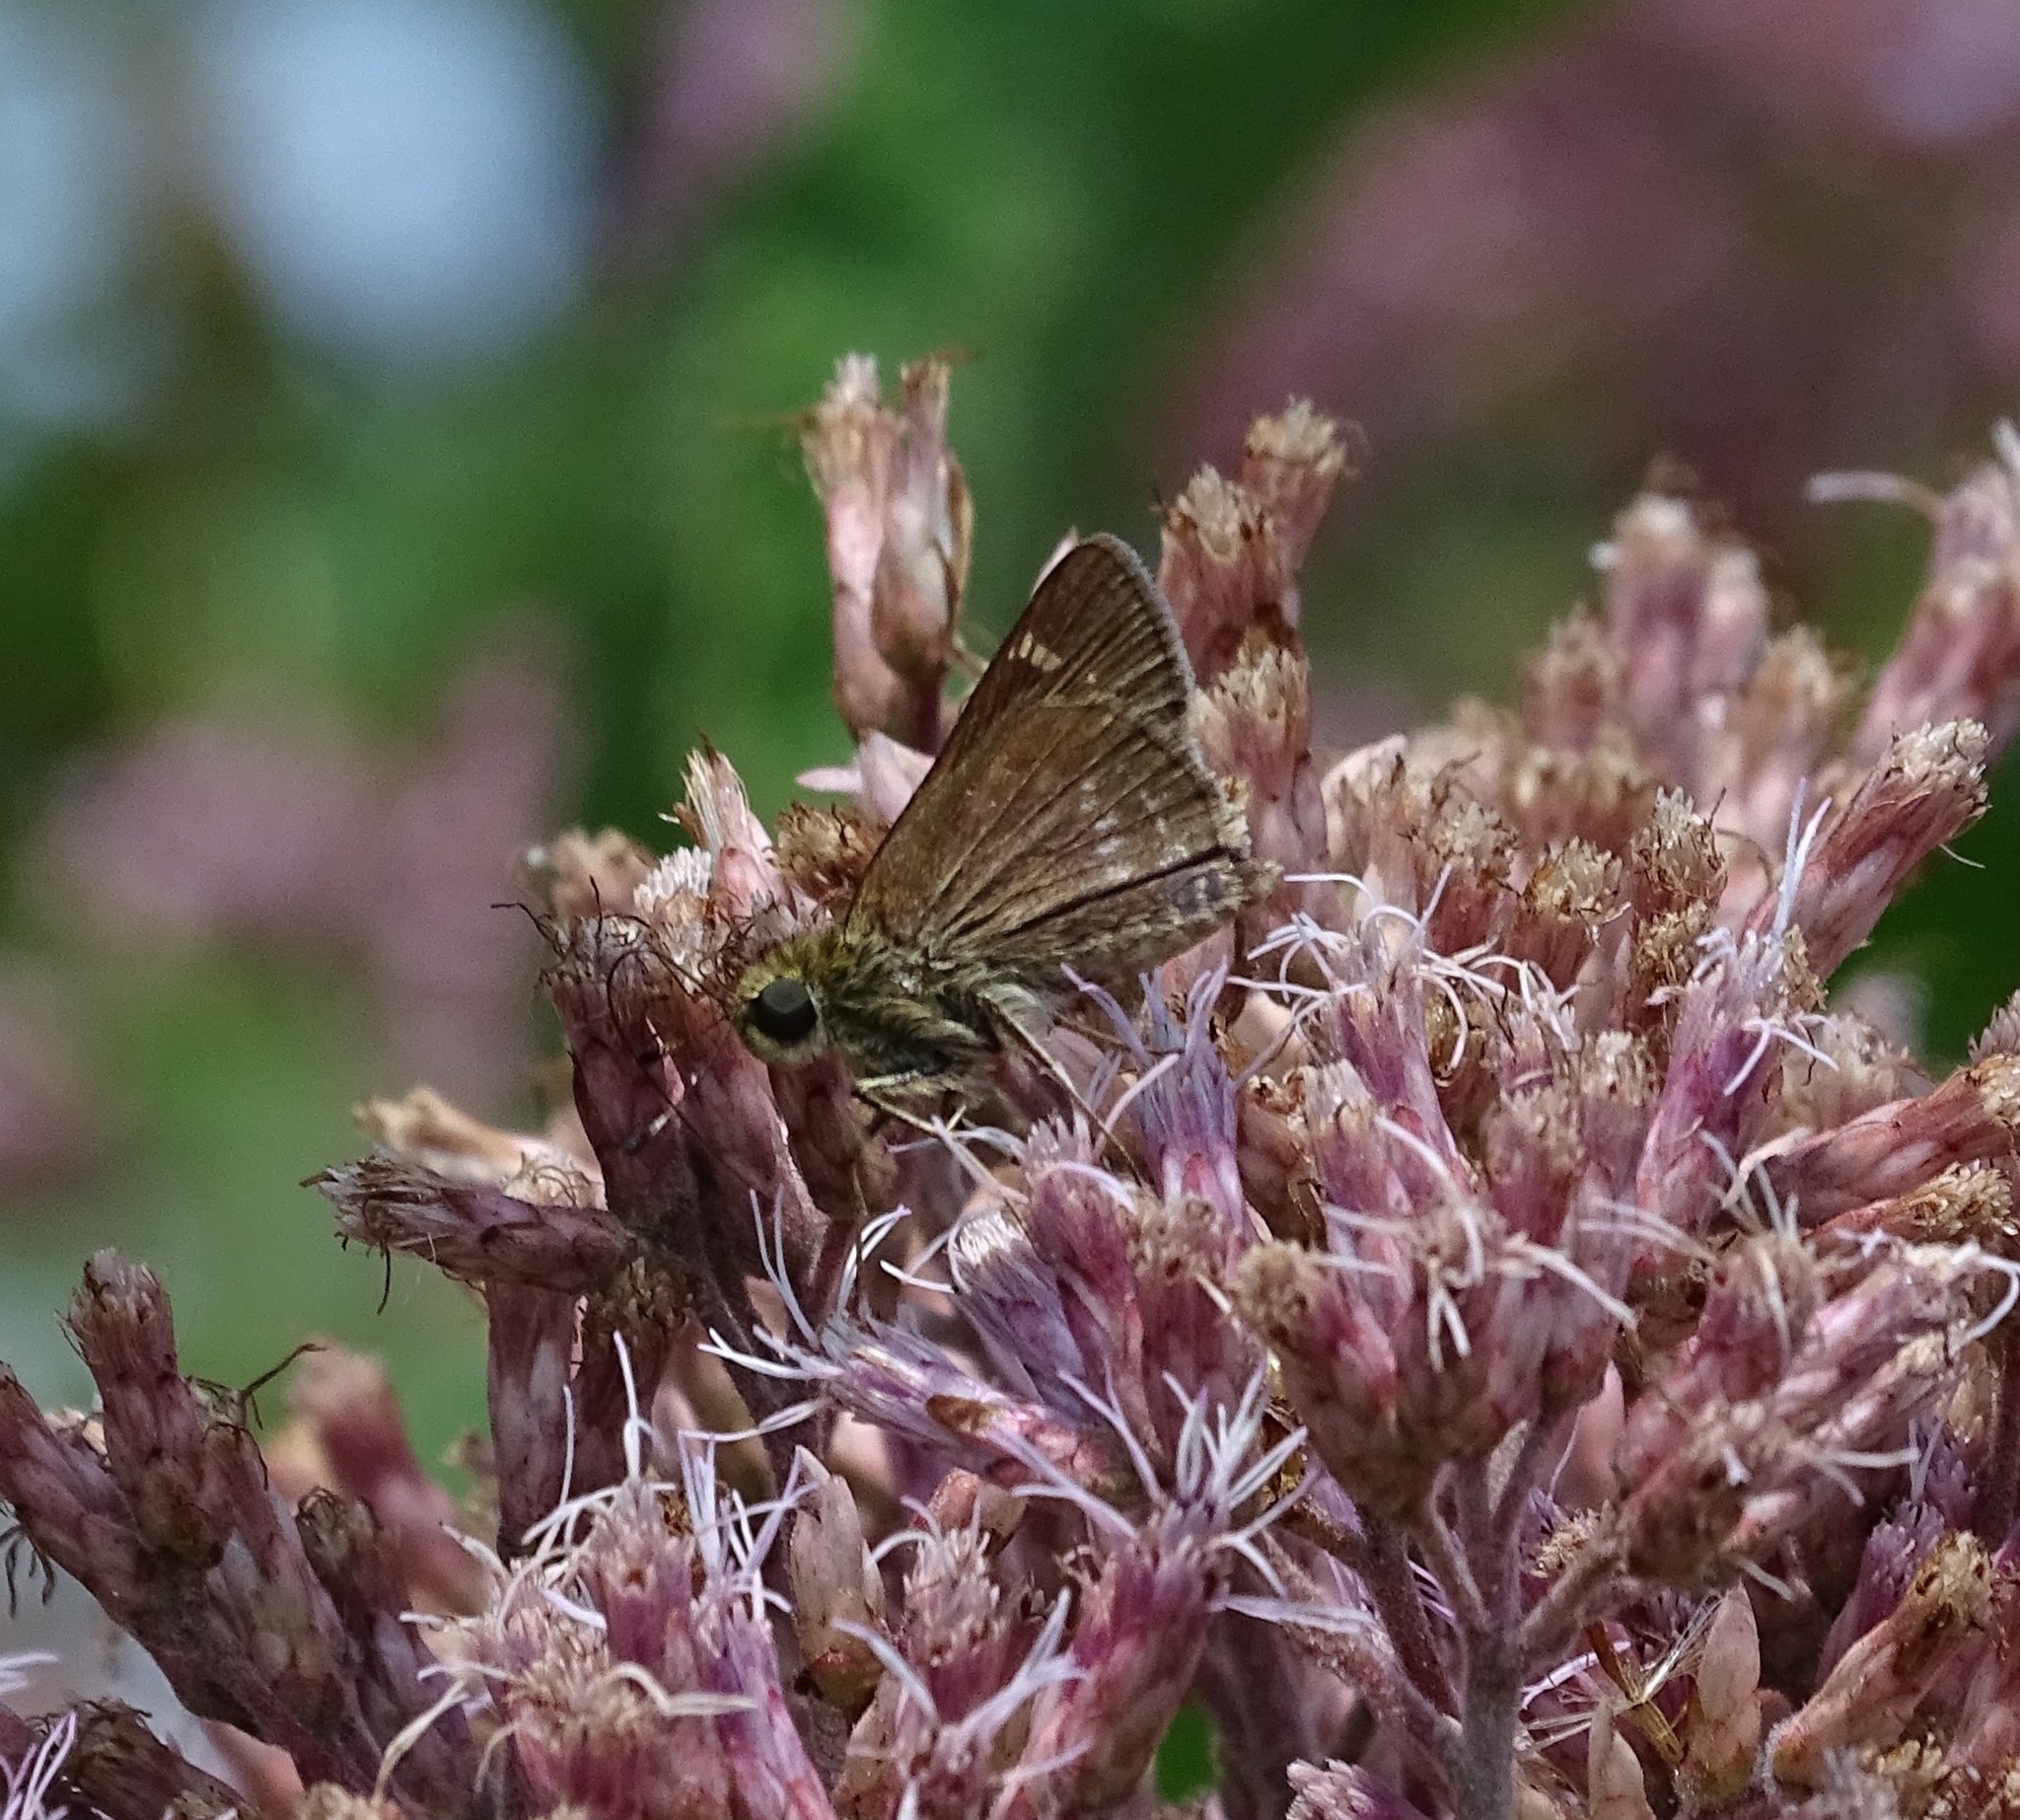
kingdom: Animalia
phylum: Arthropoda
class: Insecta
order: Lepidoptera
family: Hesperiidae
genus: Vernia
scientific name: Vernia verna
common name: Little glassywing
